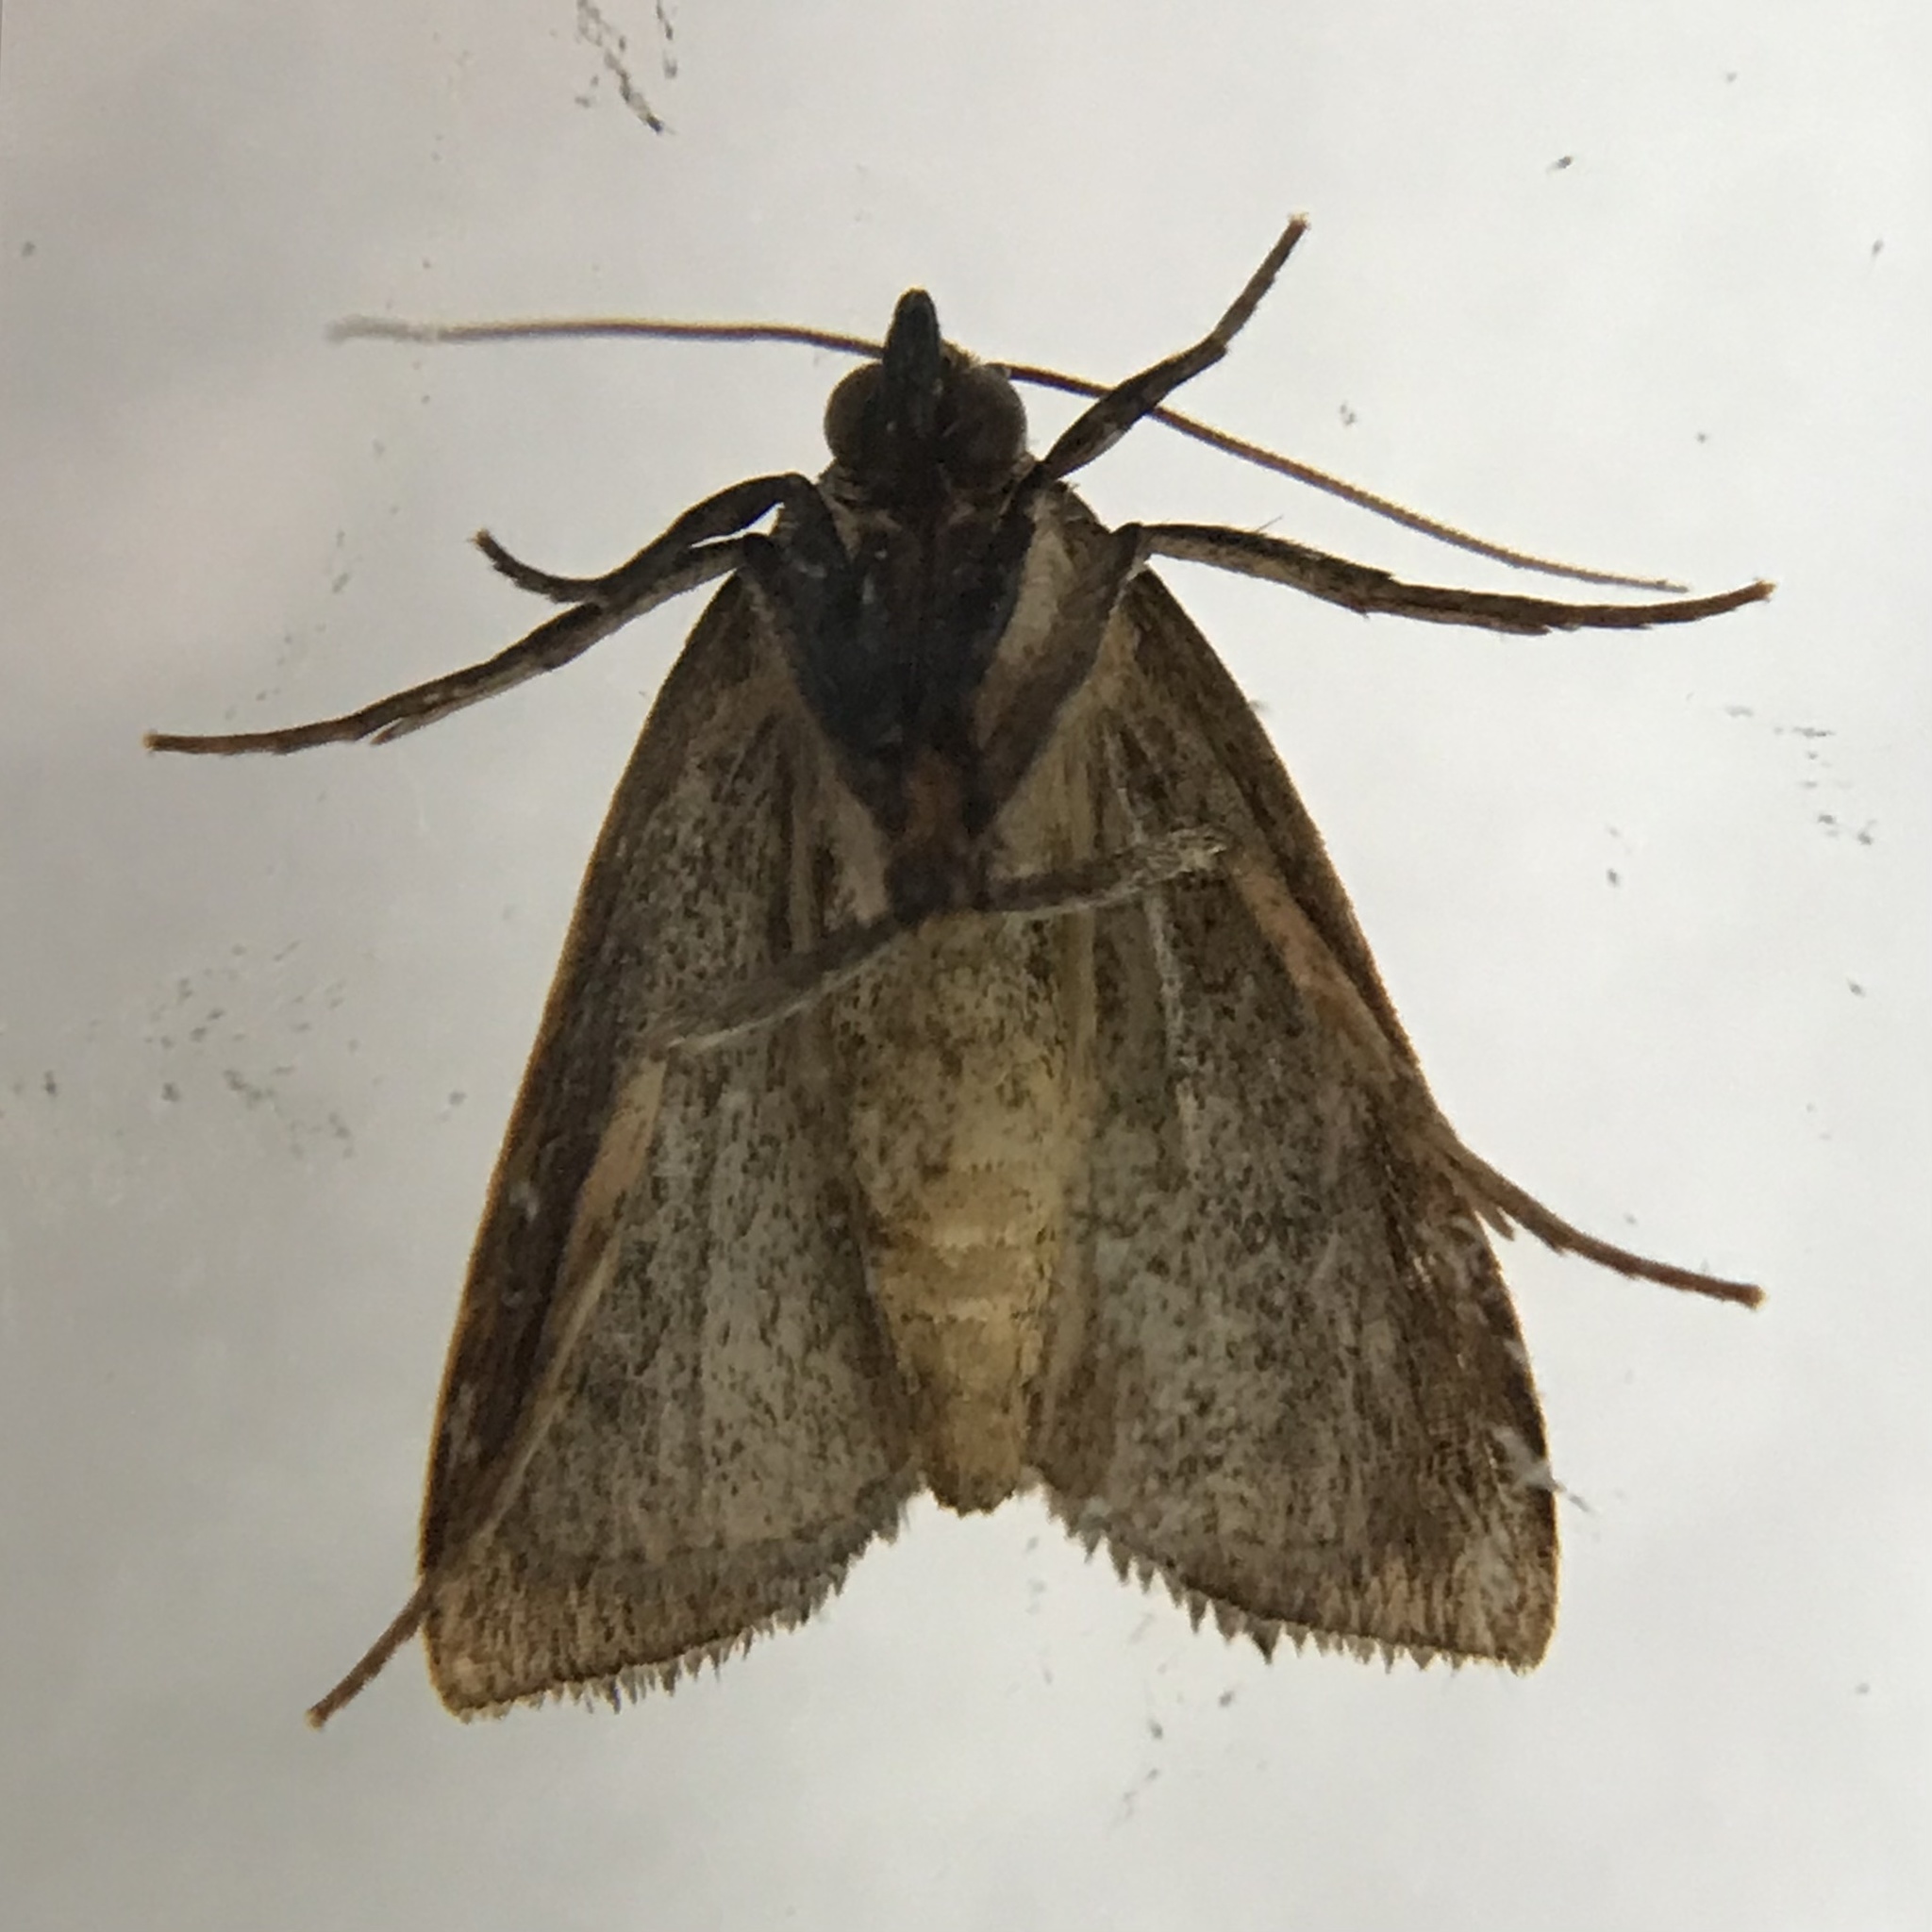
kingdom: Animalia
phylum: Arthropoda
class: Insecta
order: Lepidoptera
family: Noctuidae
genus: Marimatha
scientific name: Marimatha nigrofimbria
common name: Black-bordered lemon moth
